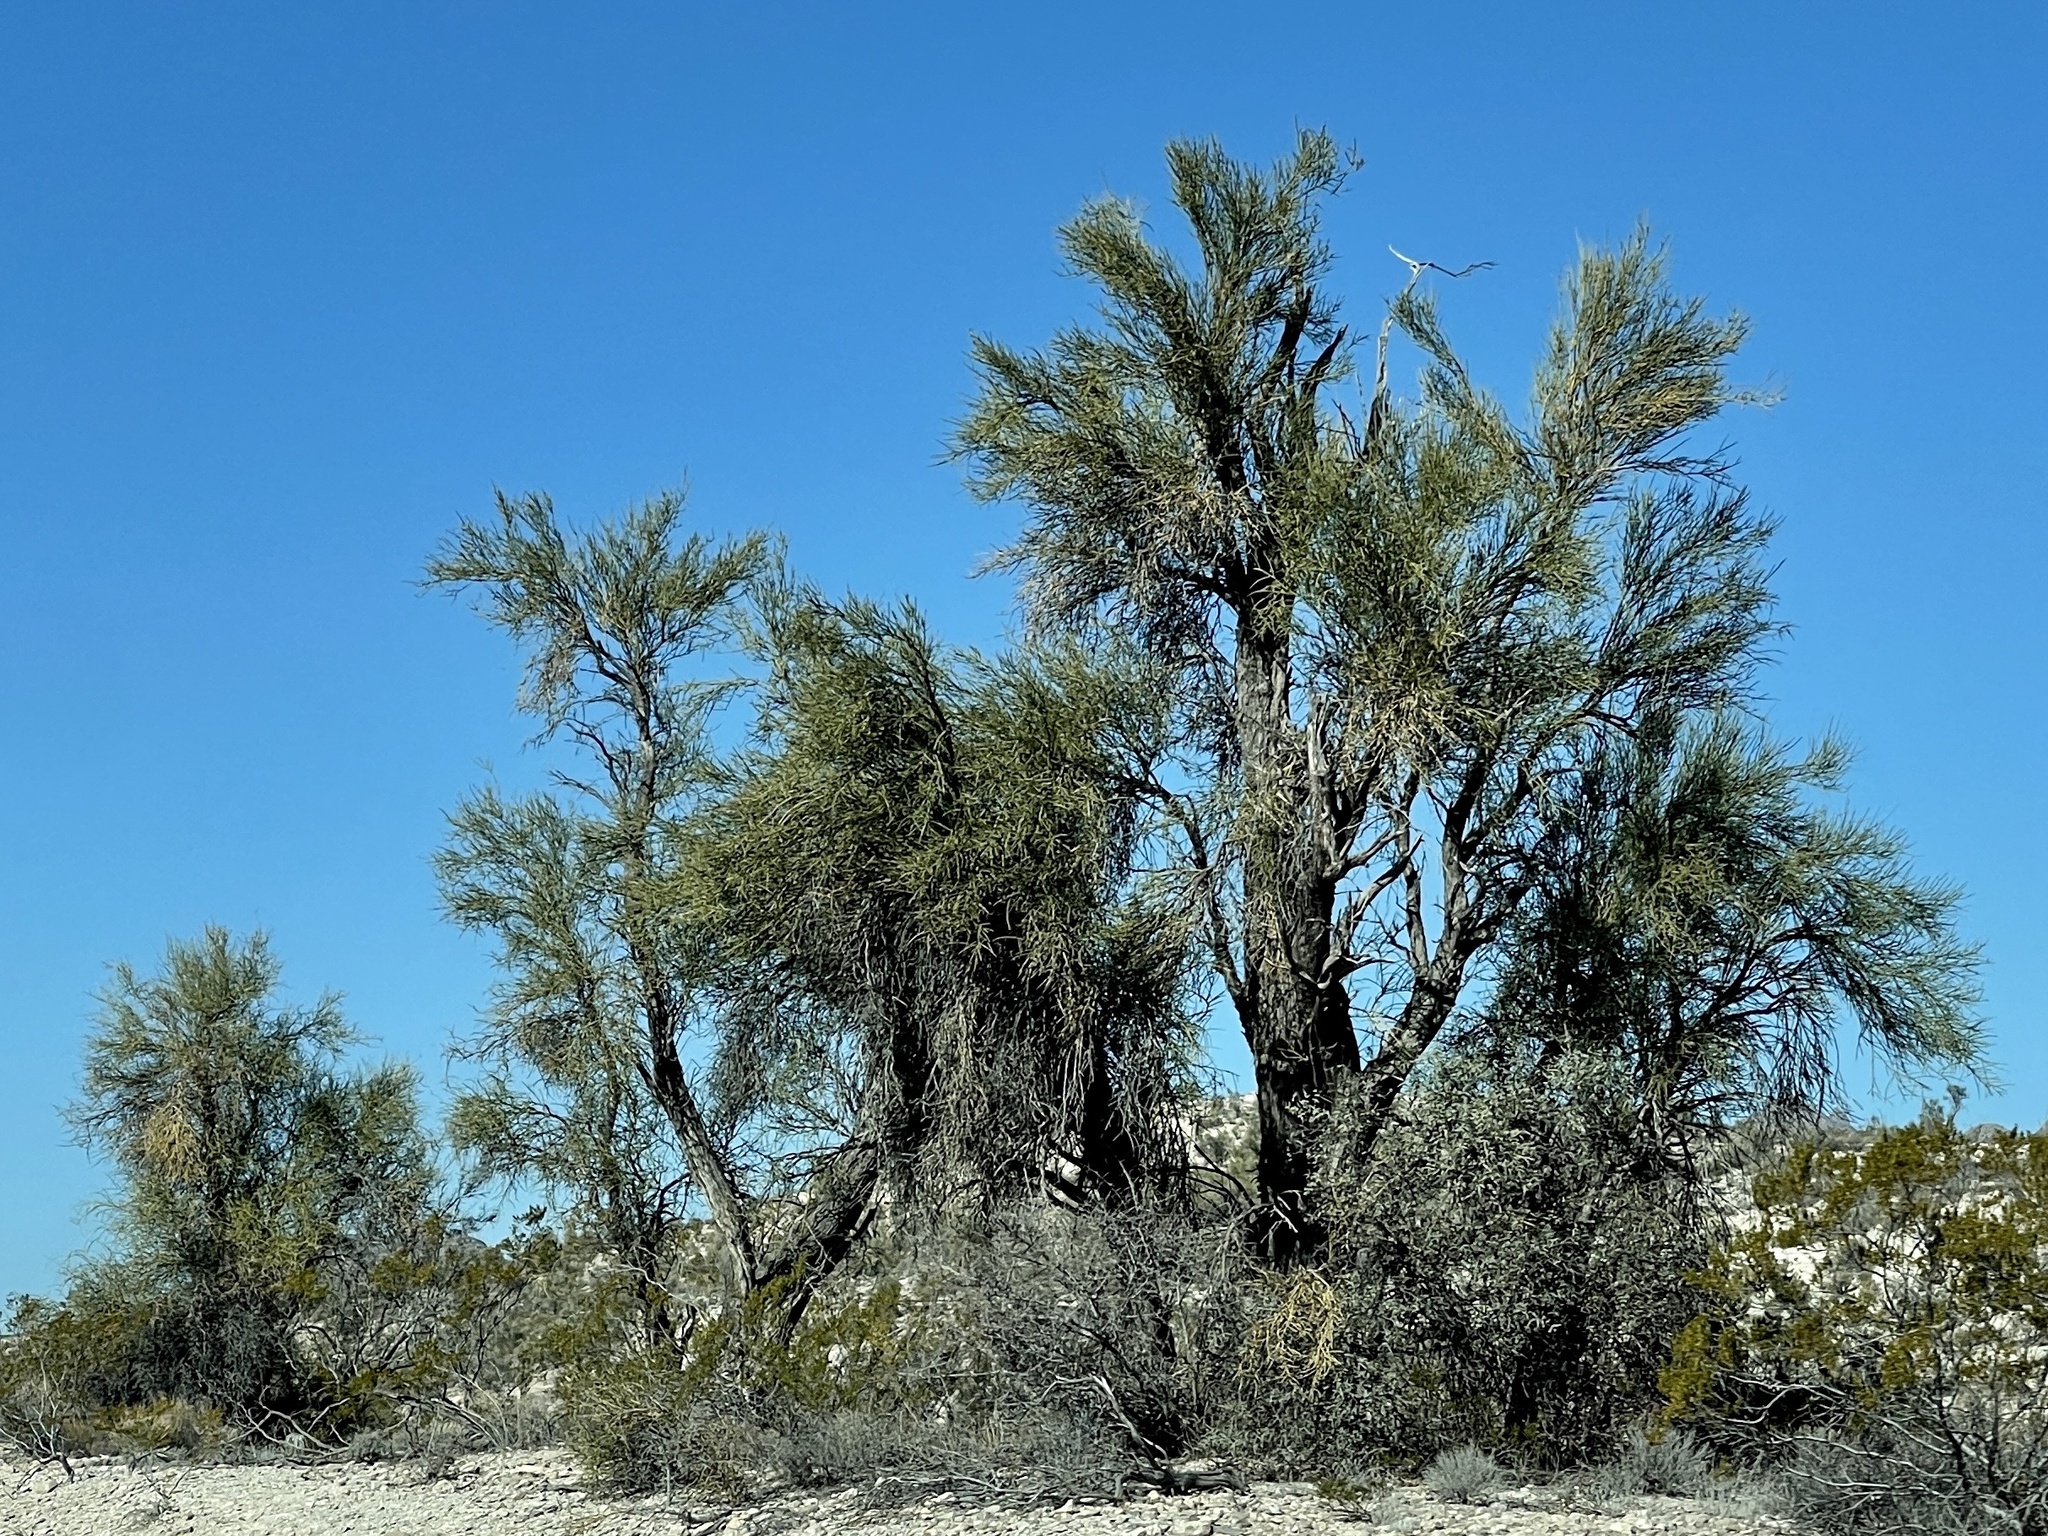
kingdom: Plantae
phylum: Tracheophyta
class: Magnoliopsida
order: Celastrales
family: Celastraceae
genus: Canotia
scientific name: Canotia holacantha
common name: Crucifixion thorns
